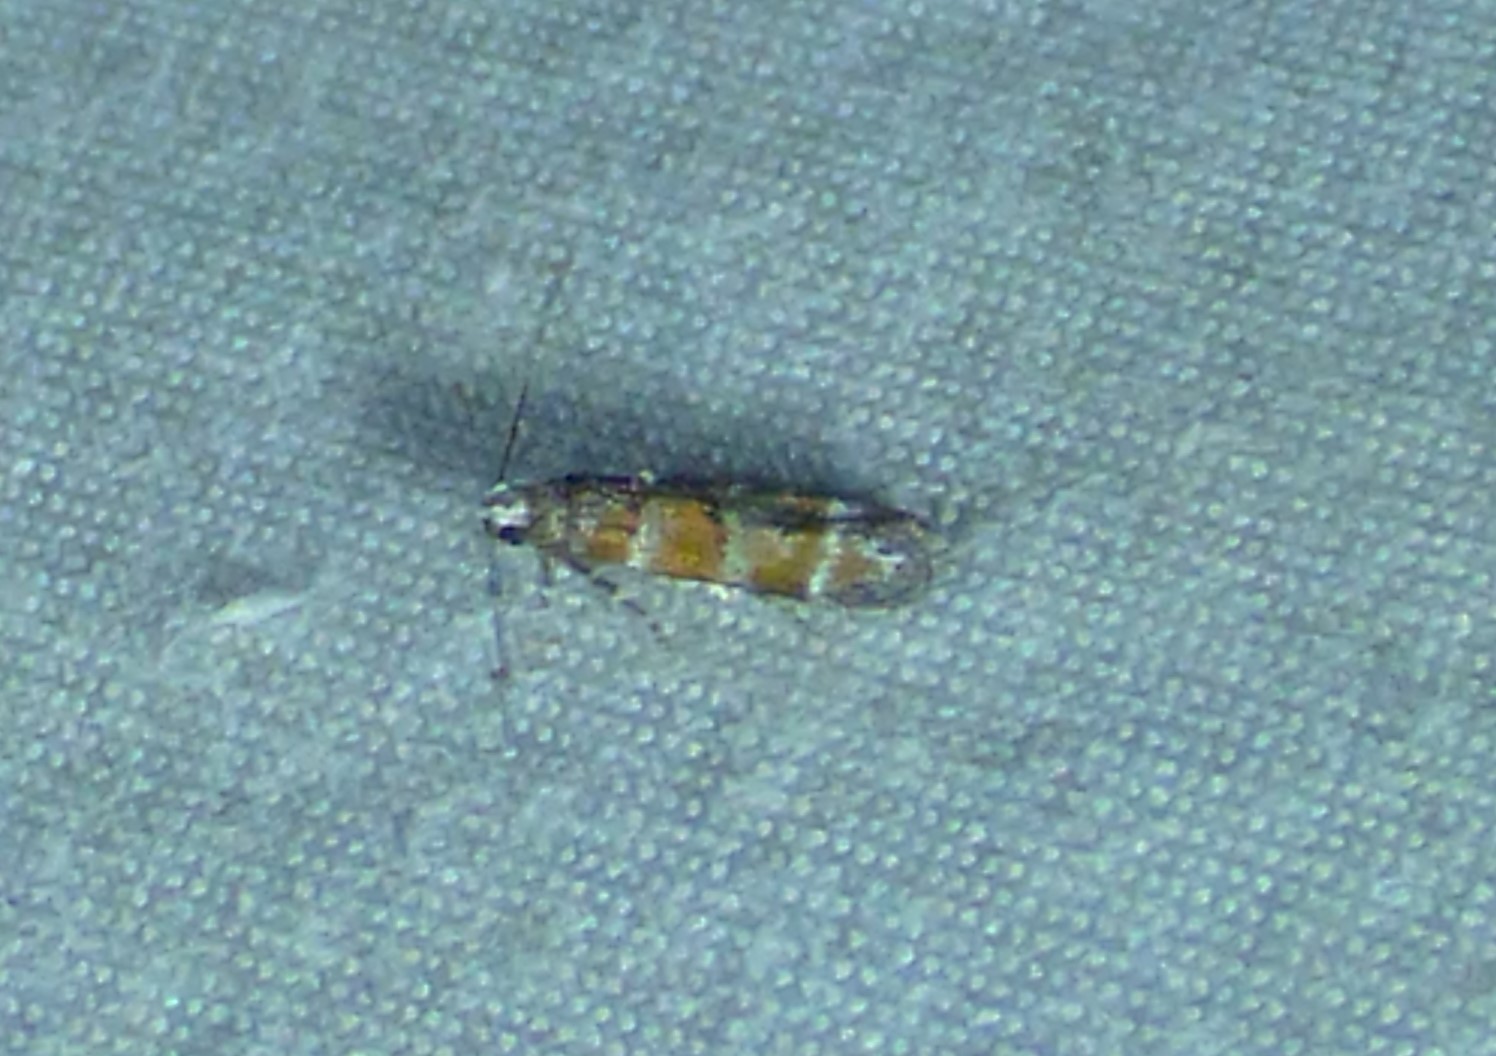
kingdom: Animalia
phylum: Arthropoda
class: Insecta
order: Lepidoptera
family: Gelechiidae
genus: Battaristis
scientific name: Battaristis vittella
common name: Orange stripe-backed moth
